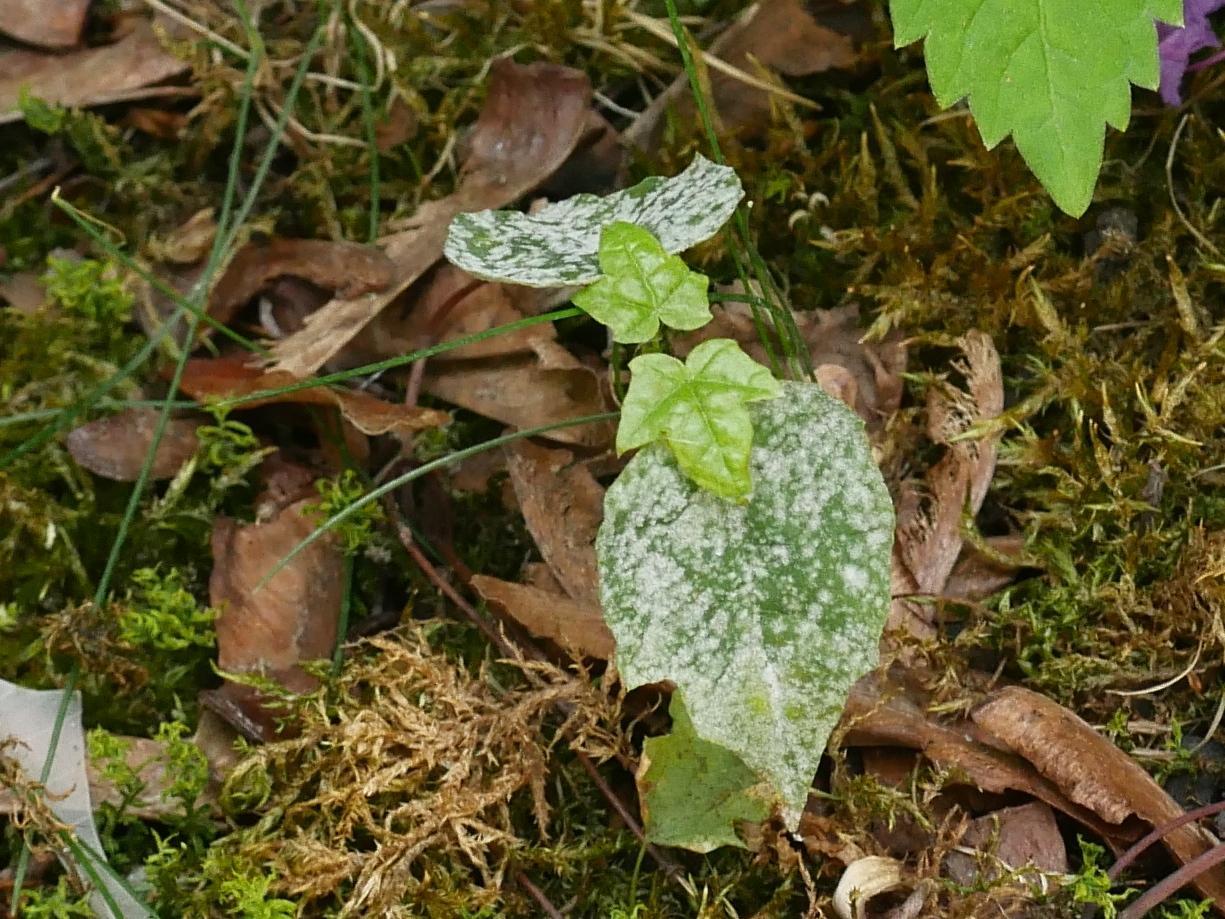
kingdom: Plantae
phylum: Tracheophyta
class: Magnoliopsida
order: Sapindales
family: Sapindaceae
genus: Acer
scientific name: Acer platanoides
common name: Norway maple
